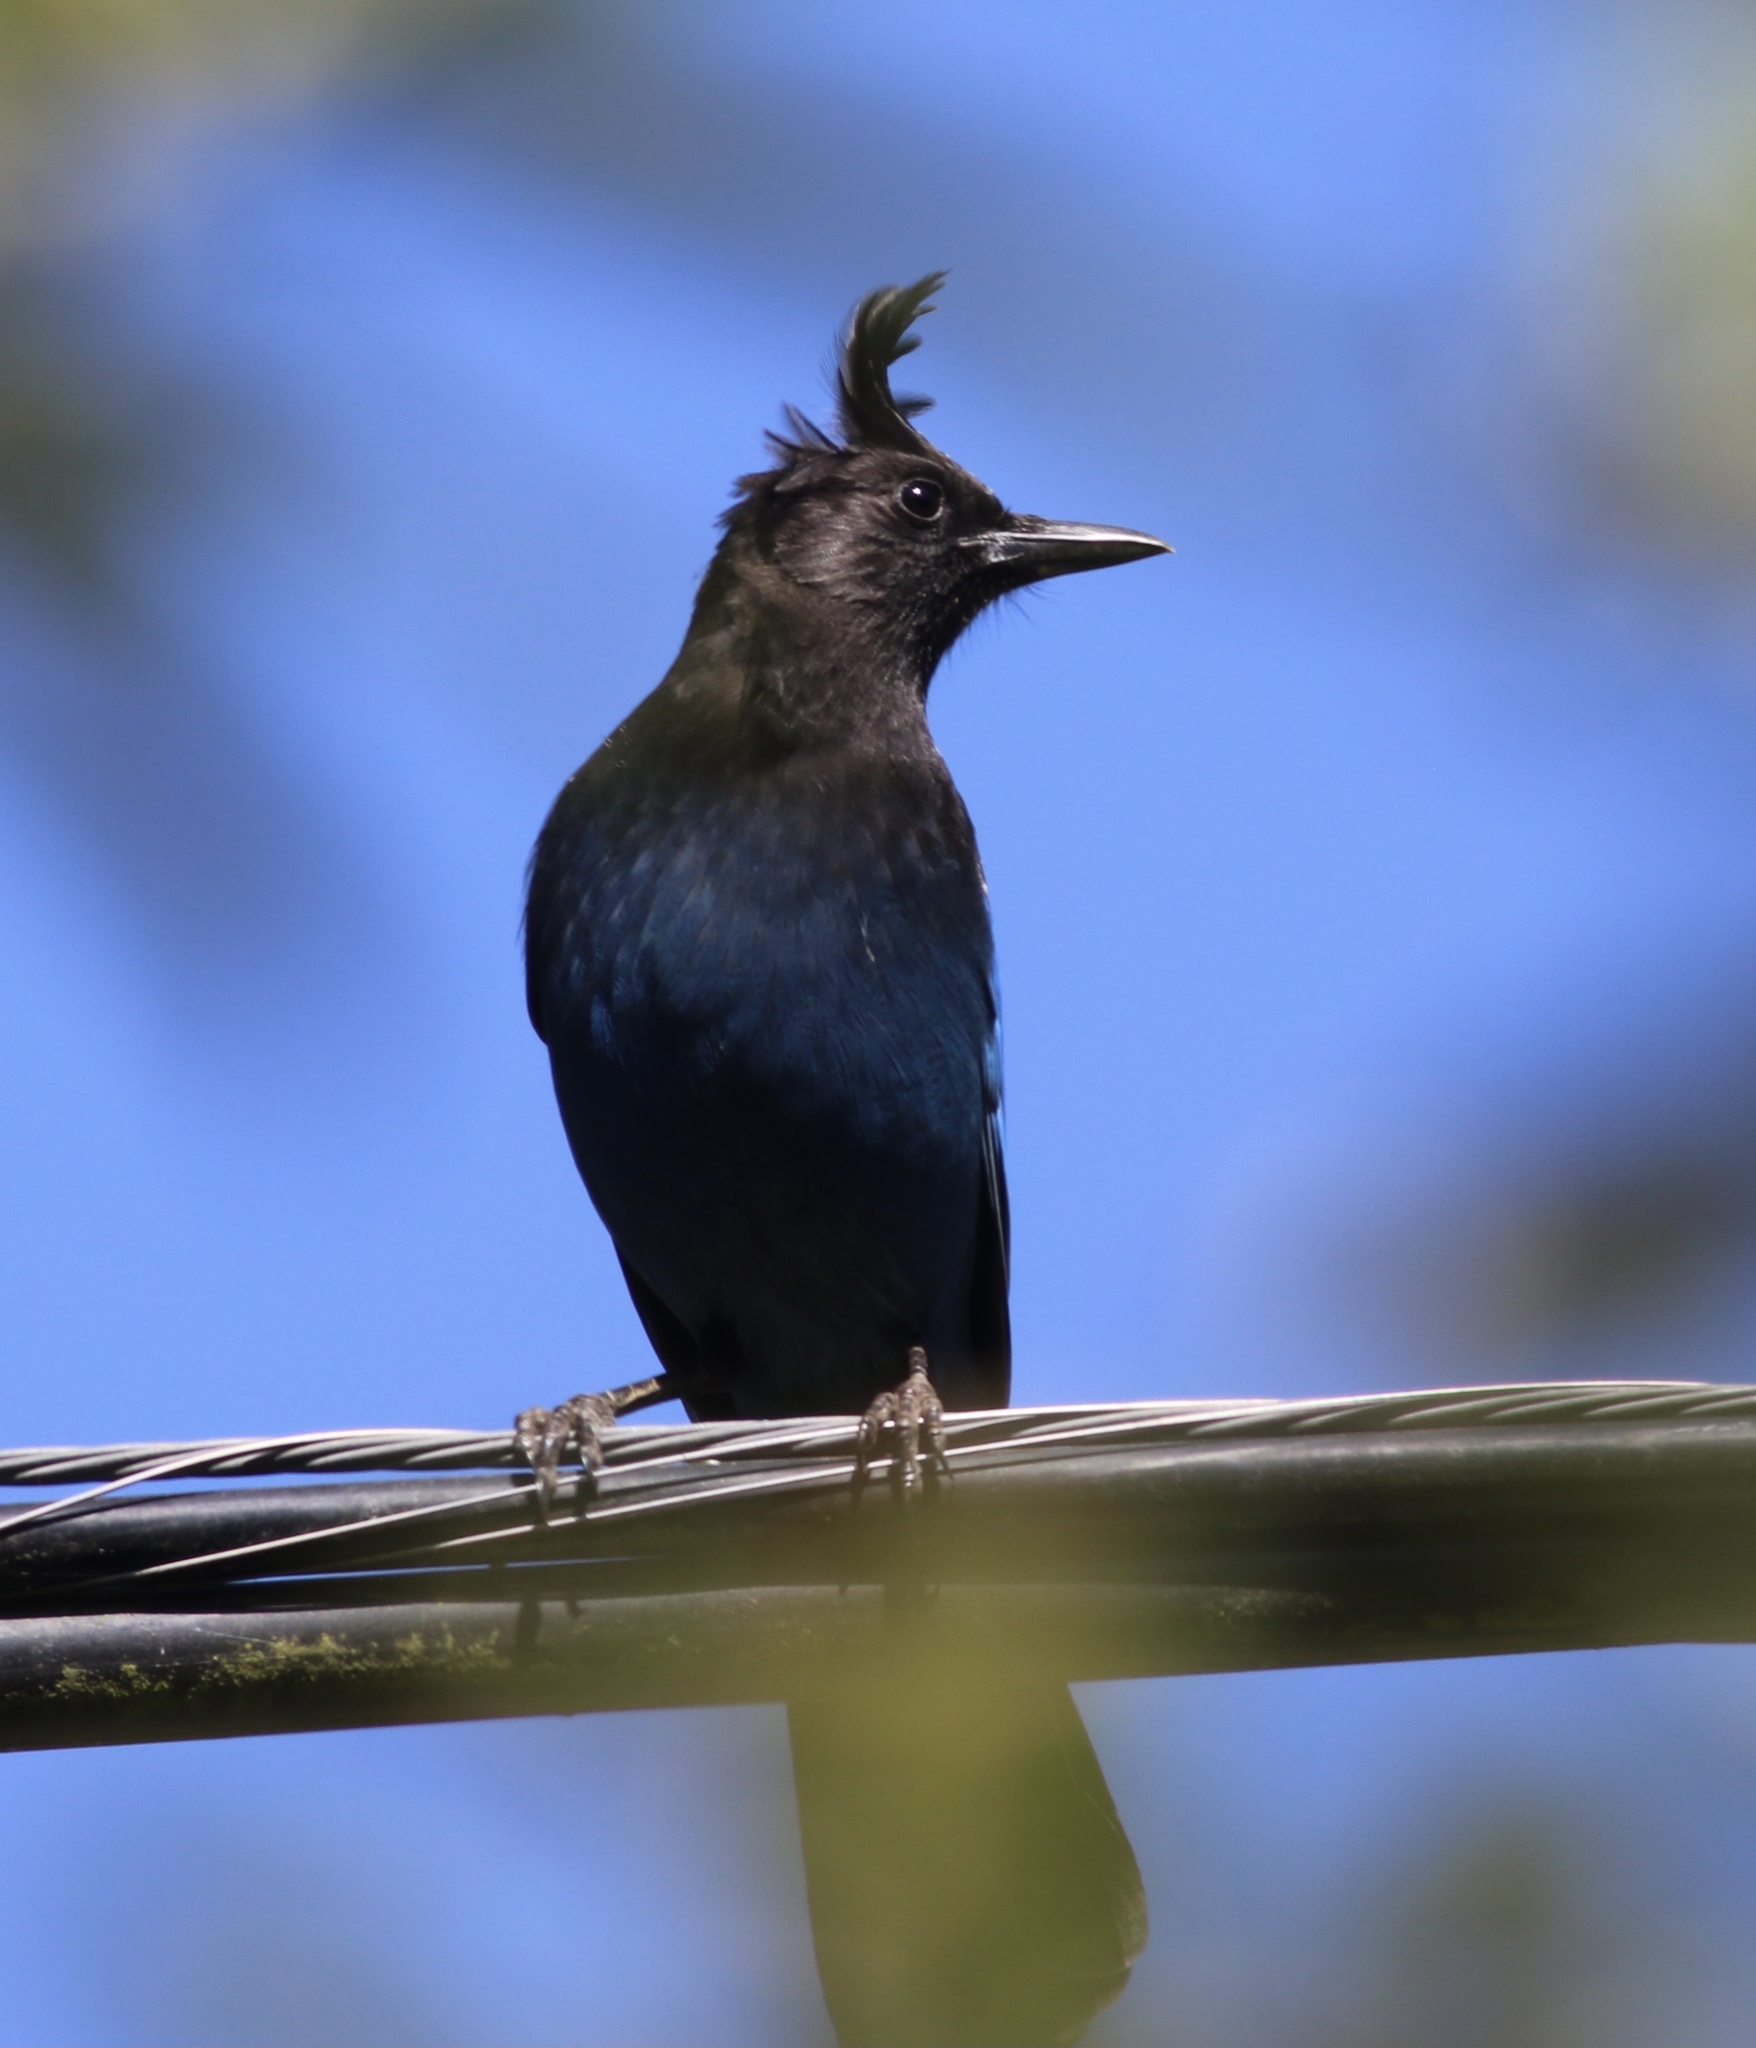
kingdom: Animalia
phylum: Chordata
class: Aves
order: Passeriformes
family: Corvidae
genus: Cyanocitta
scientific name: Cyanocitta stelleri
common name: Steller's jay
